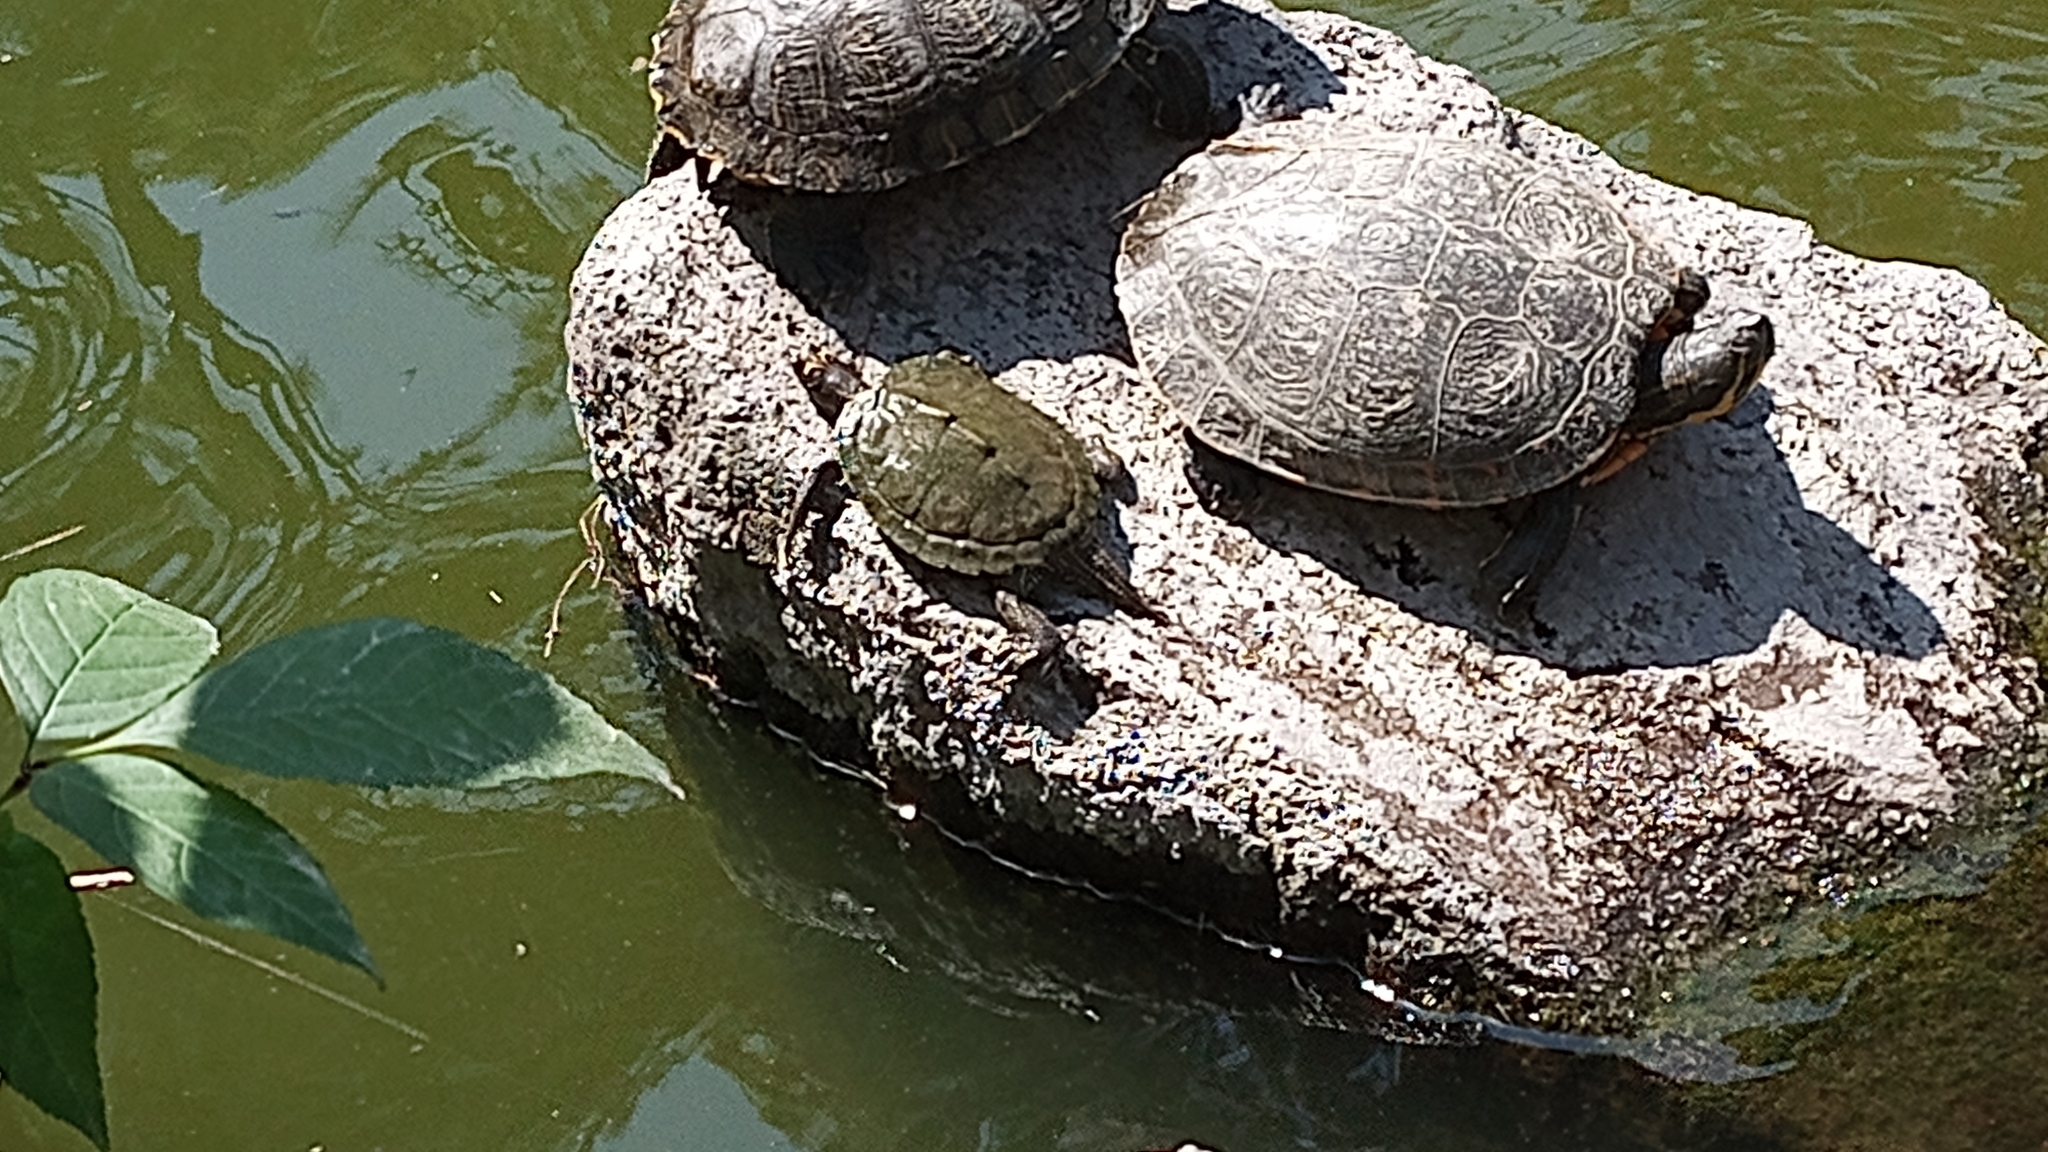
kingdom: Animalia
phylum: Chordata
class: Testudines
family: Emydidae
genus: Graptemys
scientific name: Graptemys pseudogeographica
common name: False map turtle
